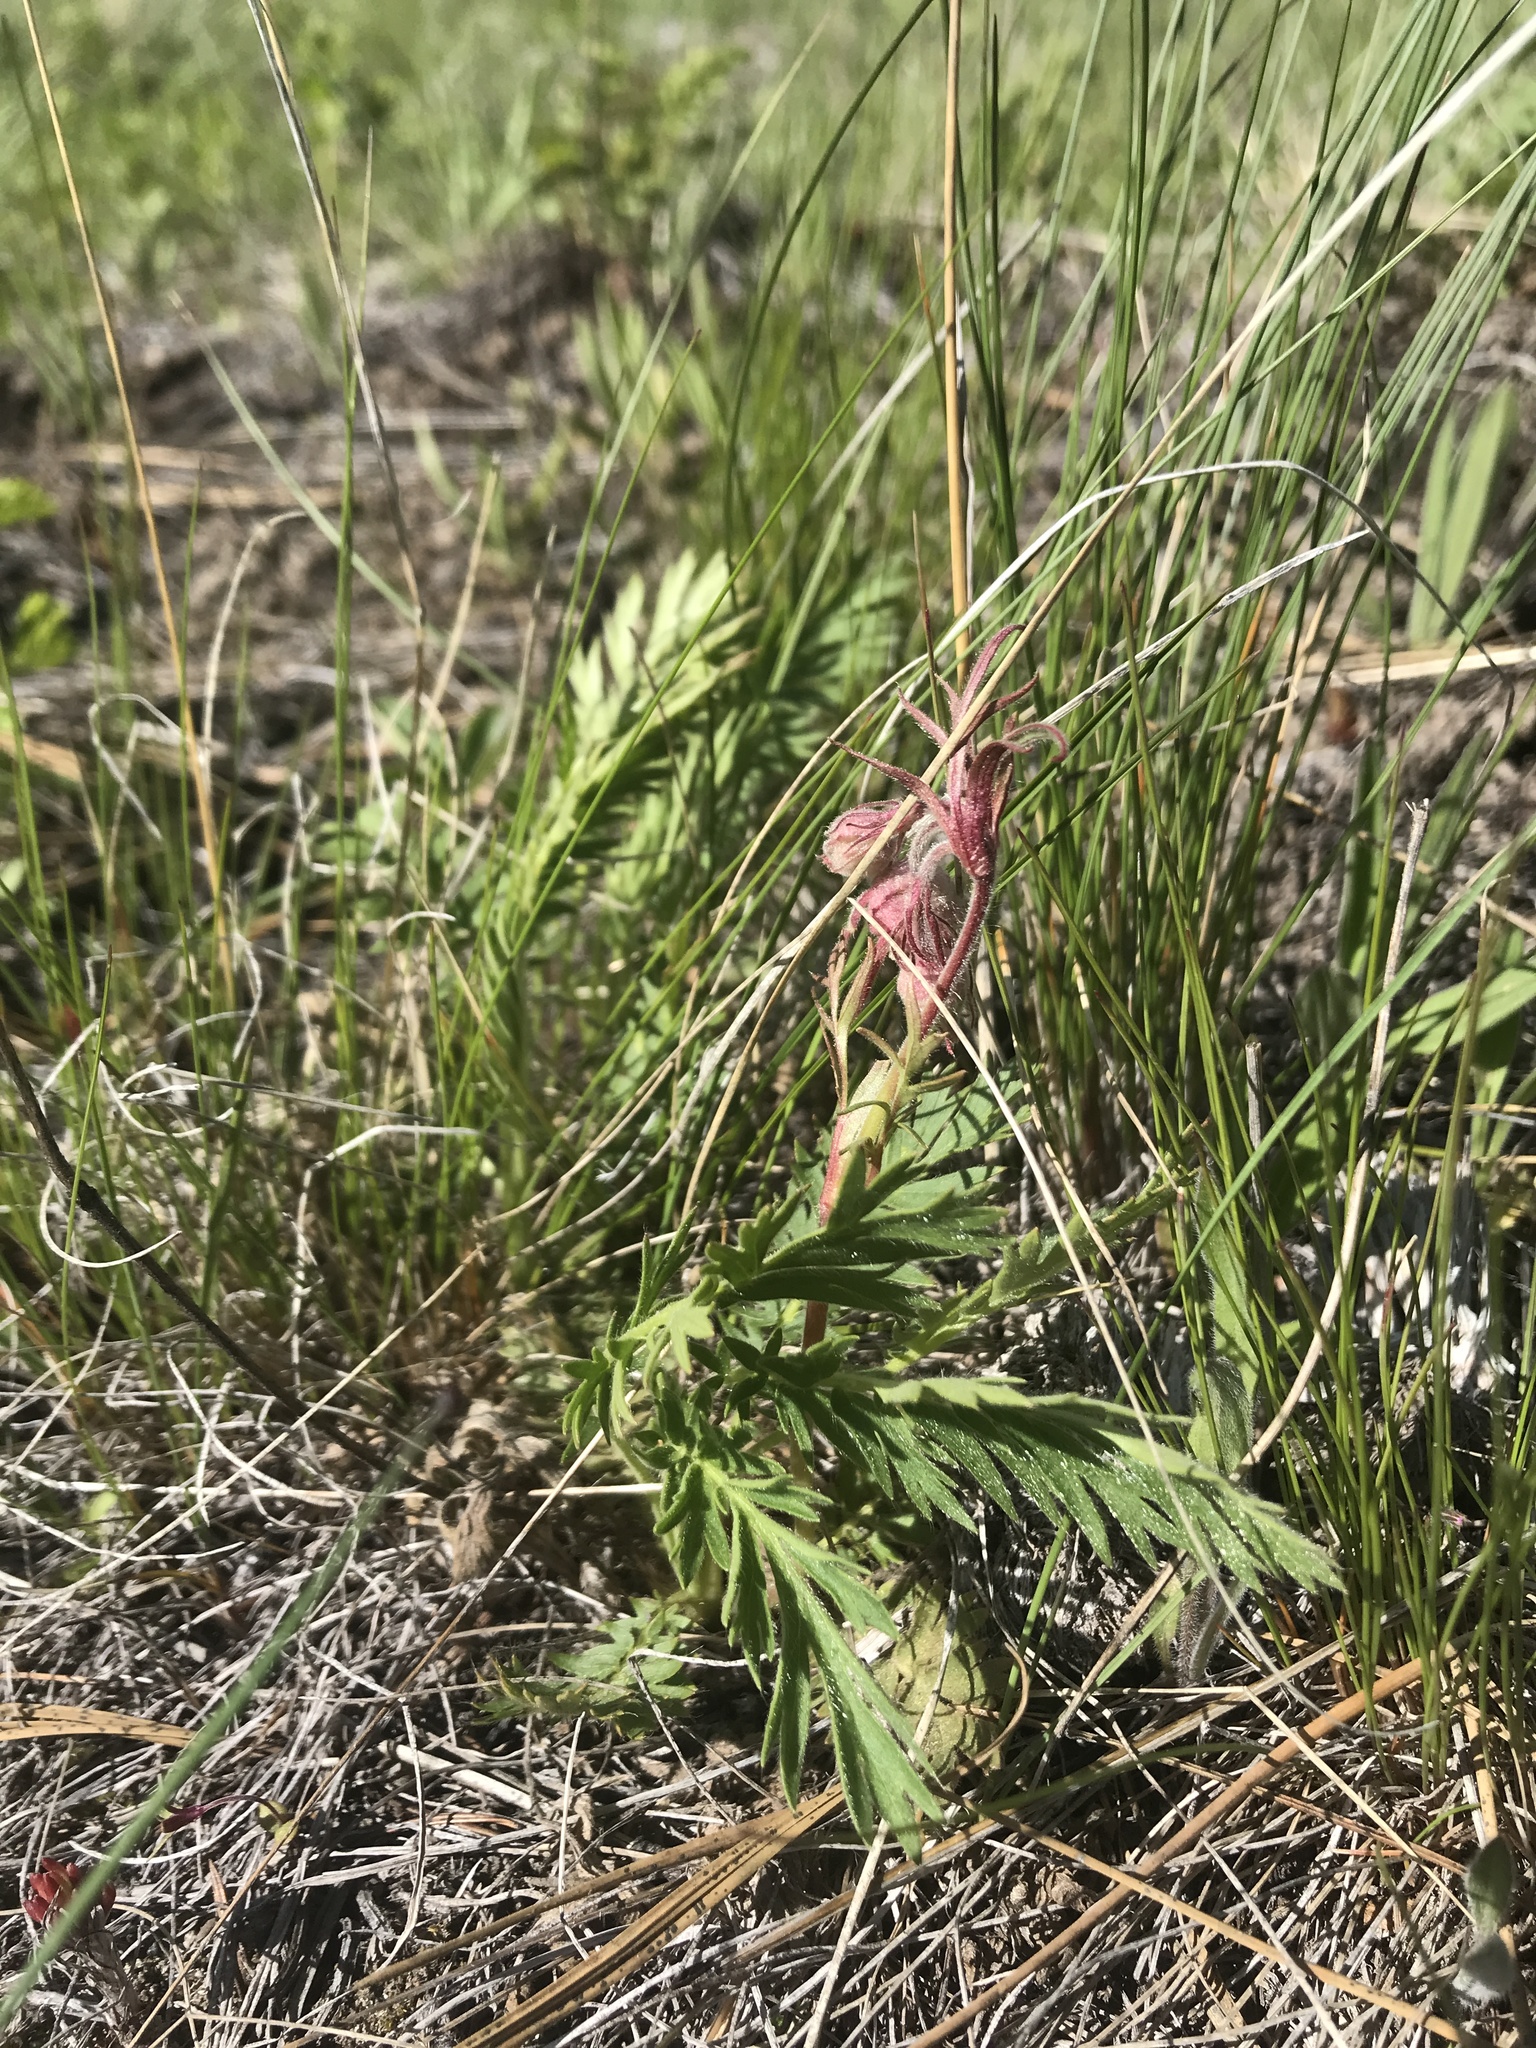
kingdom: Plantae
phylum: Tracheophyta
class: Magnoliopsida
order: Rosales
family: Rosaceae
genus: Geum
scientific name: Geum triflorum
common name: Old man's whiskers
